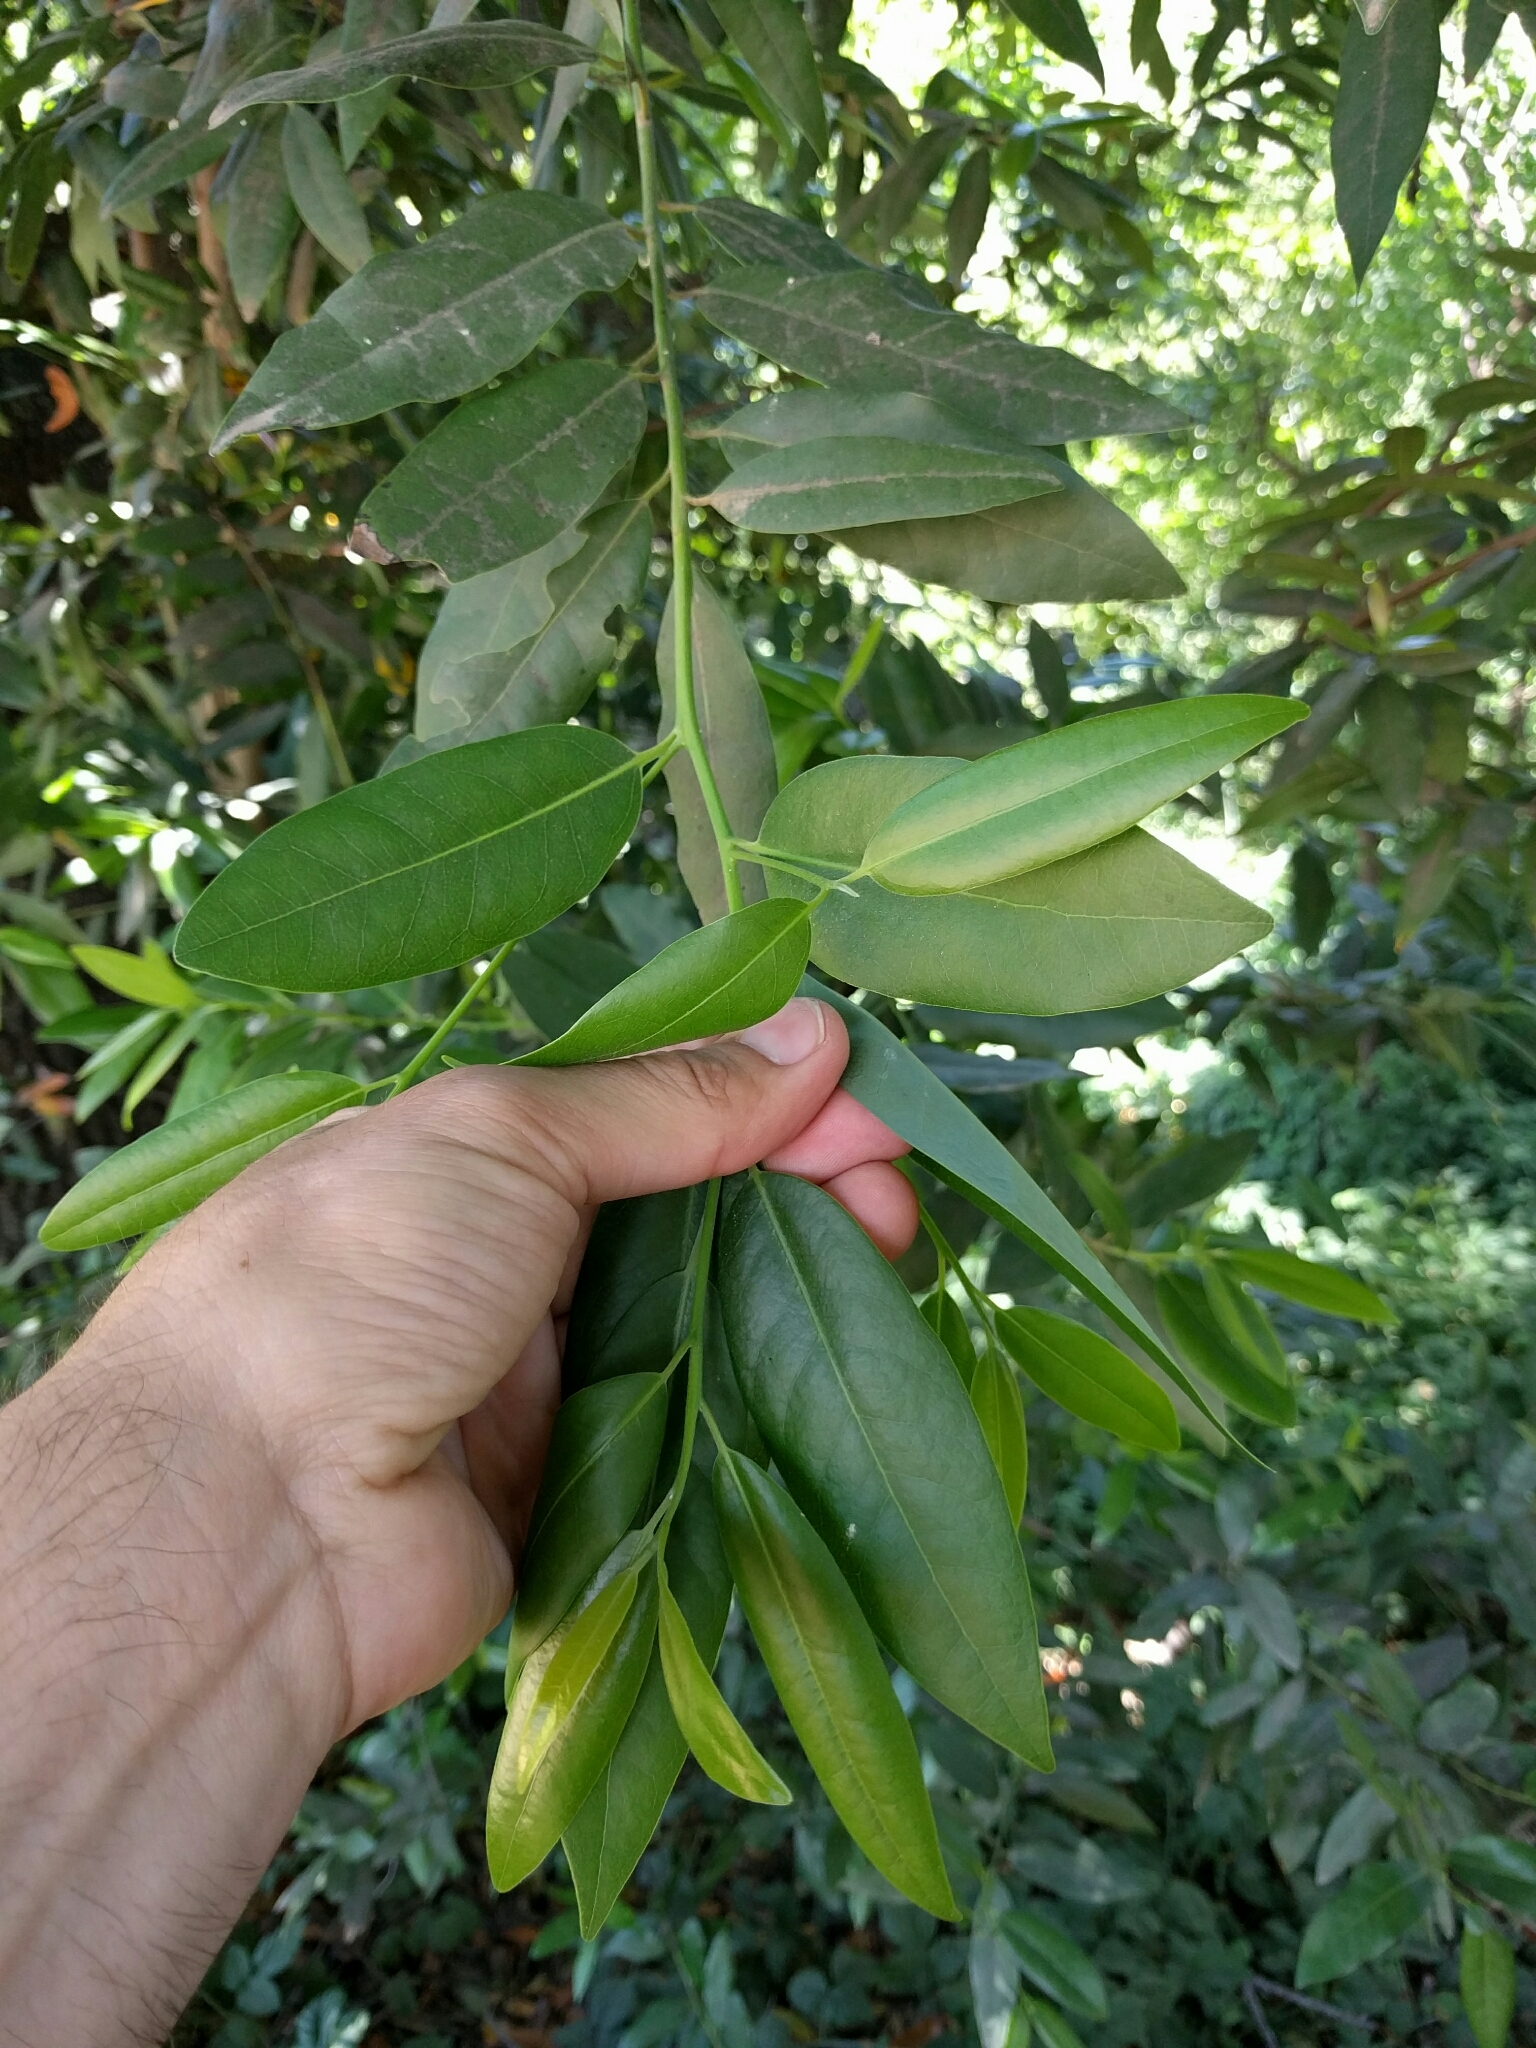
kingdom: Plantae
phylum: Tracheophyta
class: Magnoliopsida
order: Laurales
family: Lauraceae
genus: Umbellularia
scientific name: Umbellularia californica
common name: California bay
